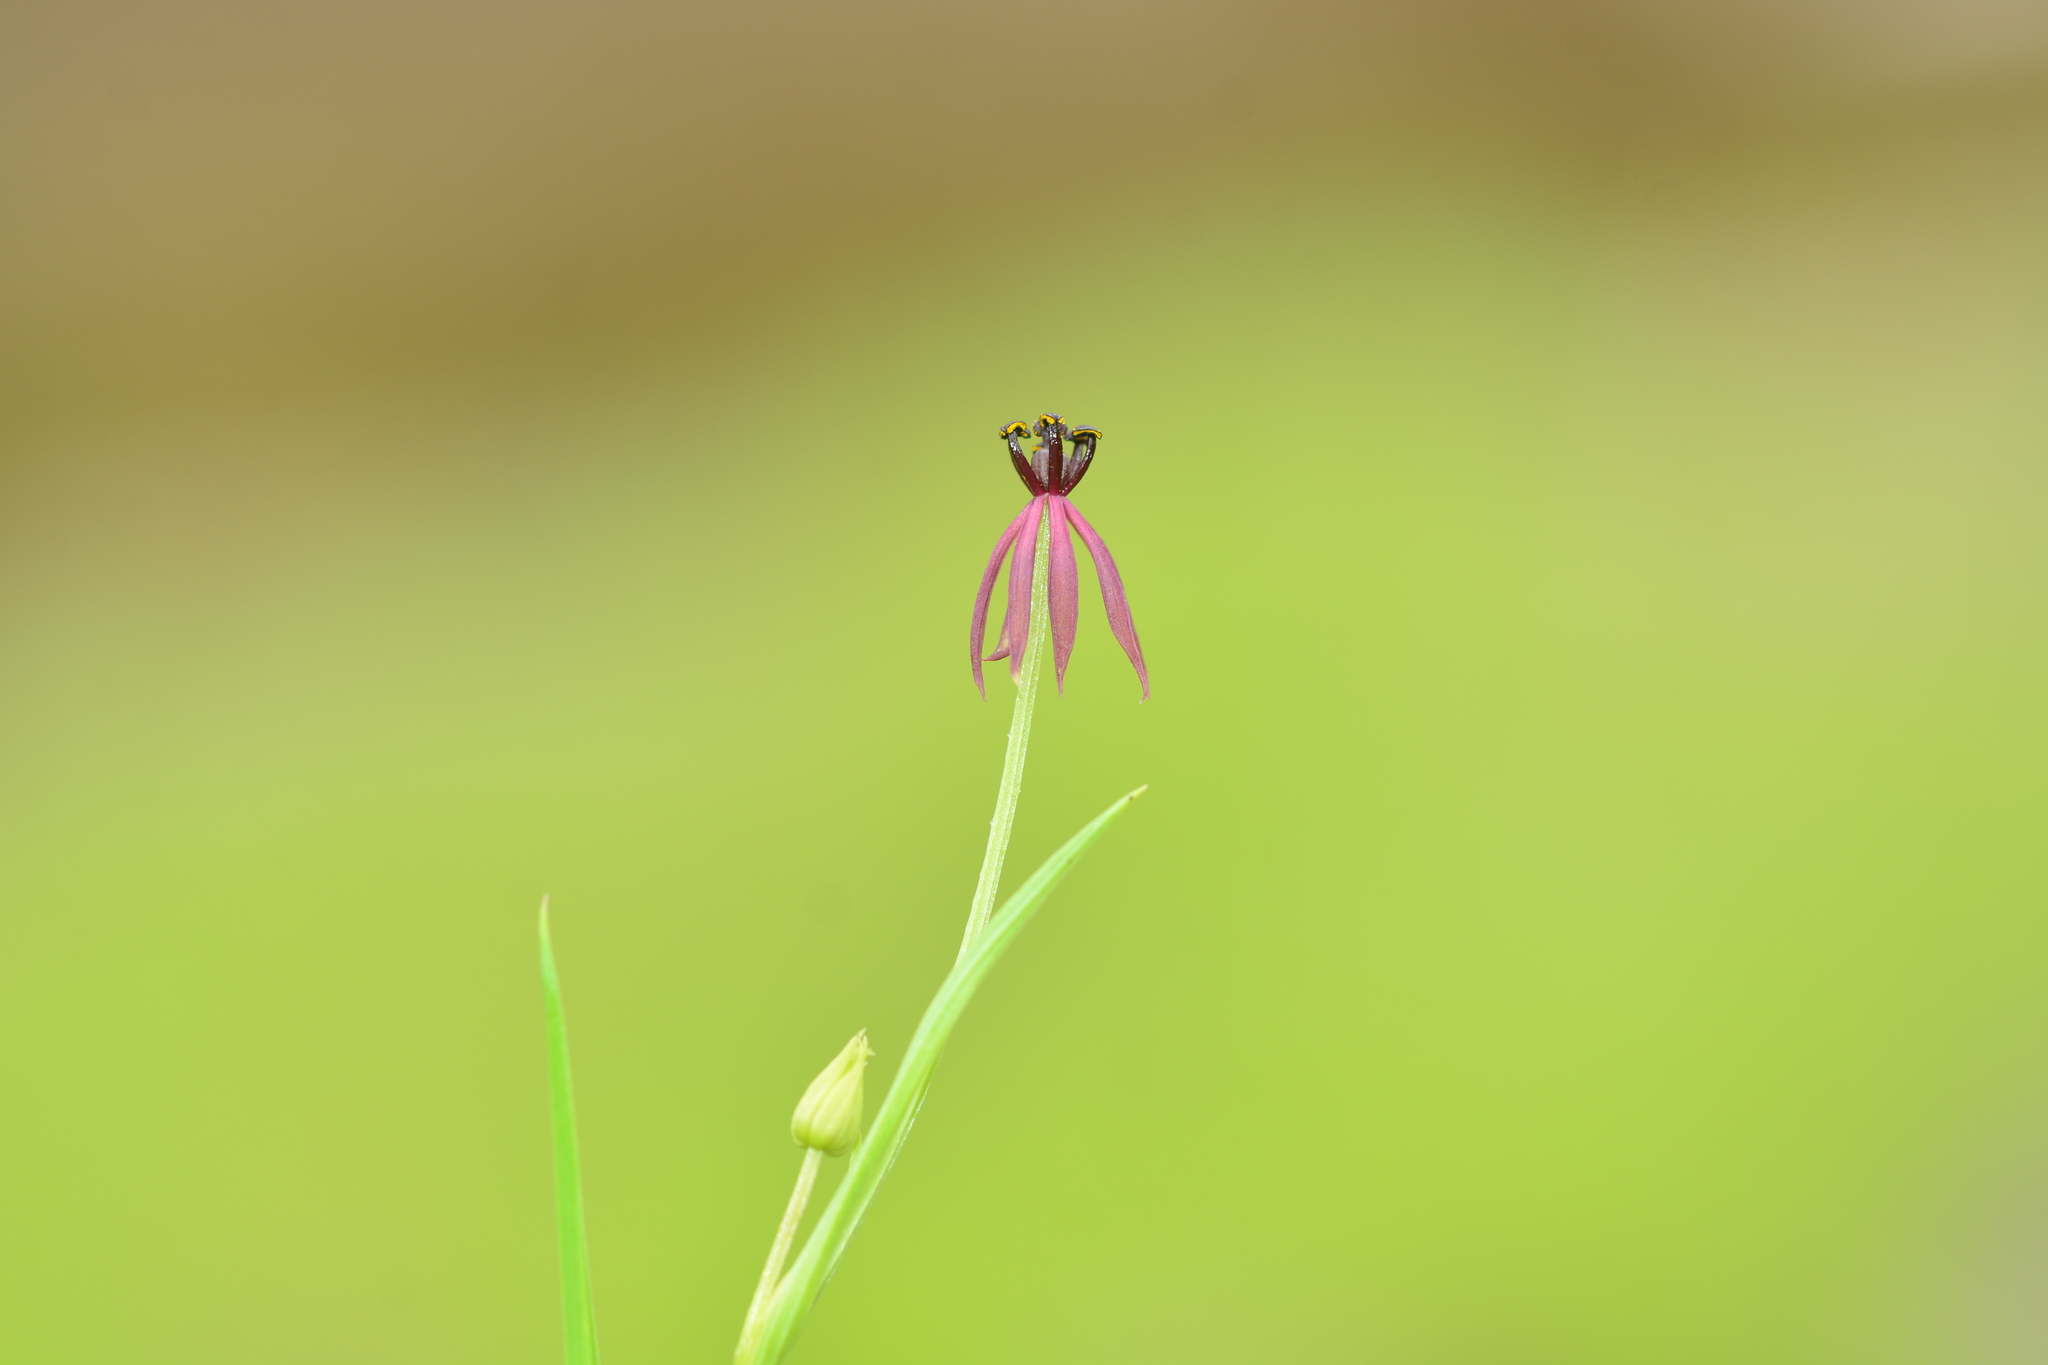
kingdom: Plantae
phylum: Tracheophyta
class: Liliopsida
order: Liliales
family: Colchicaceae
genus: Iphigenia
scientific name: Iphigenia magnifica
